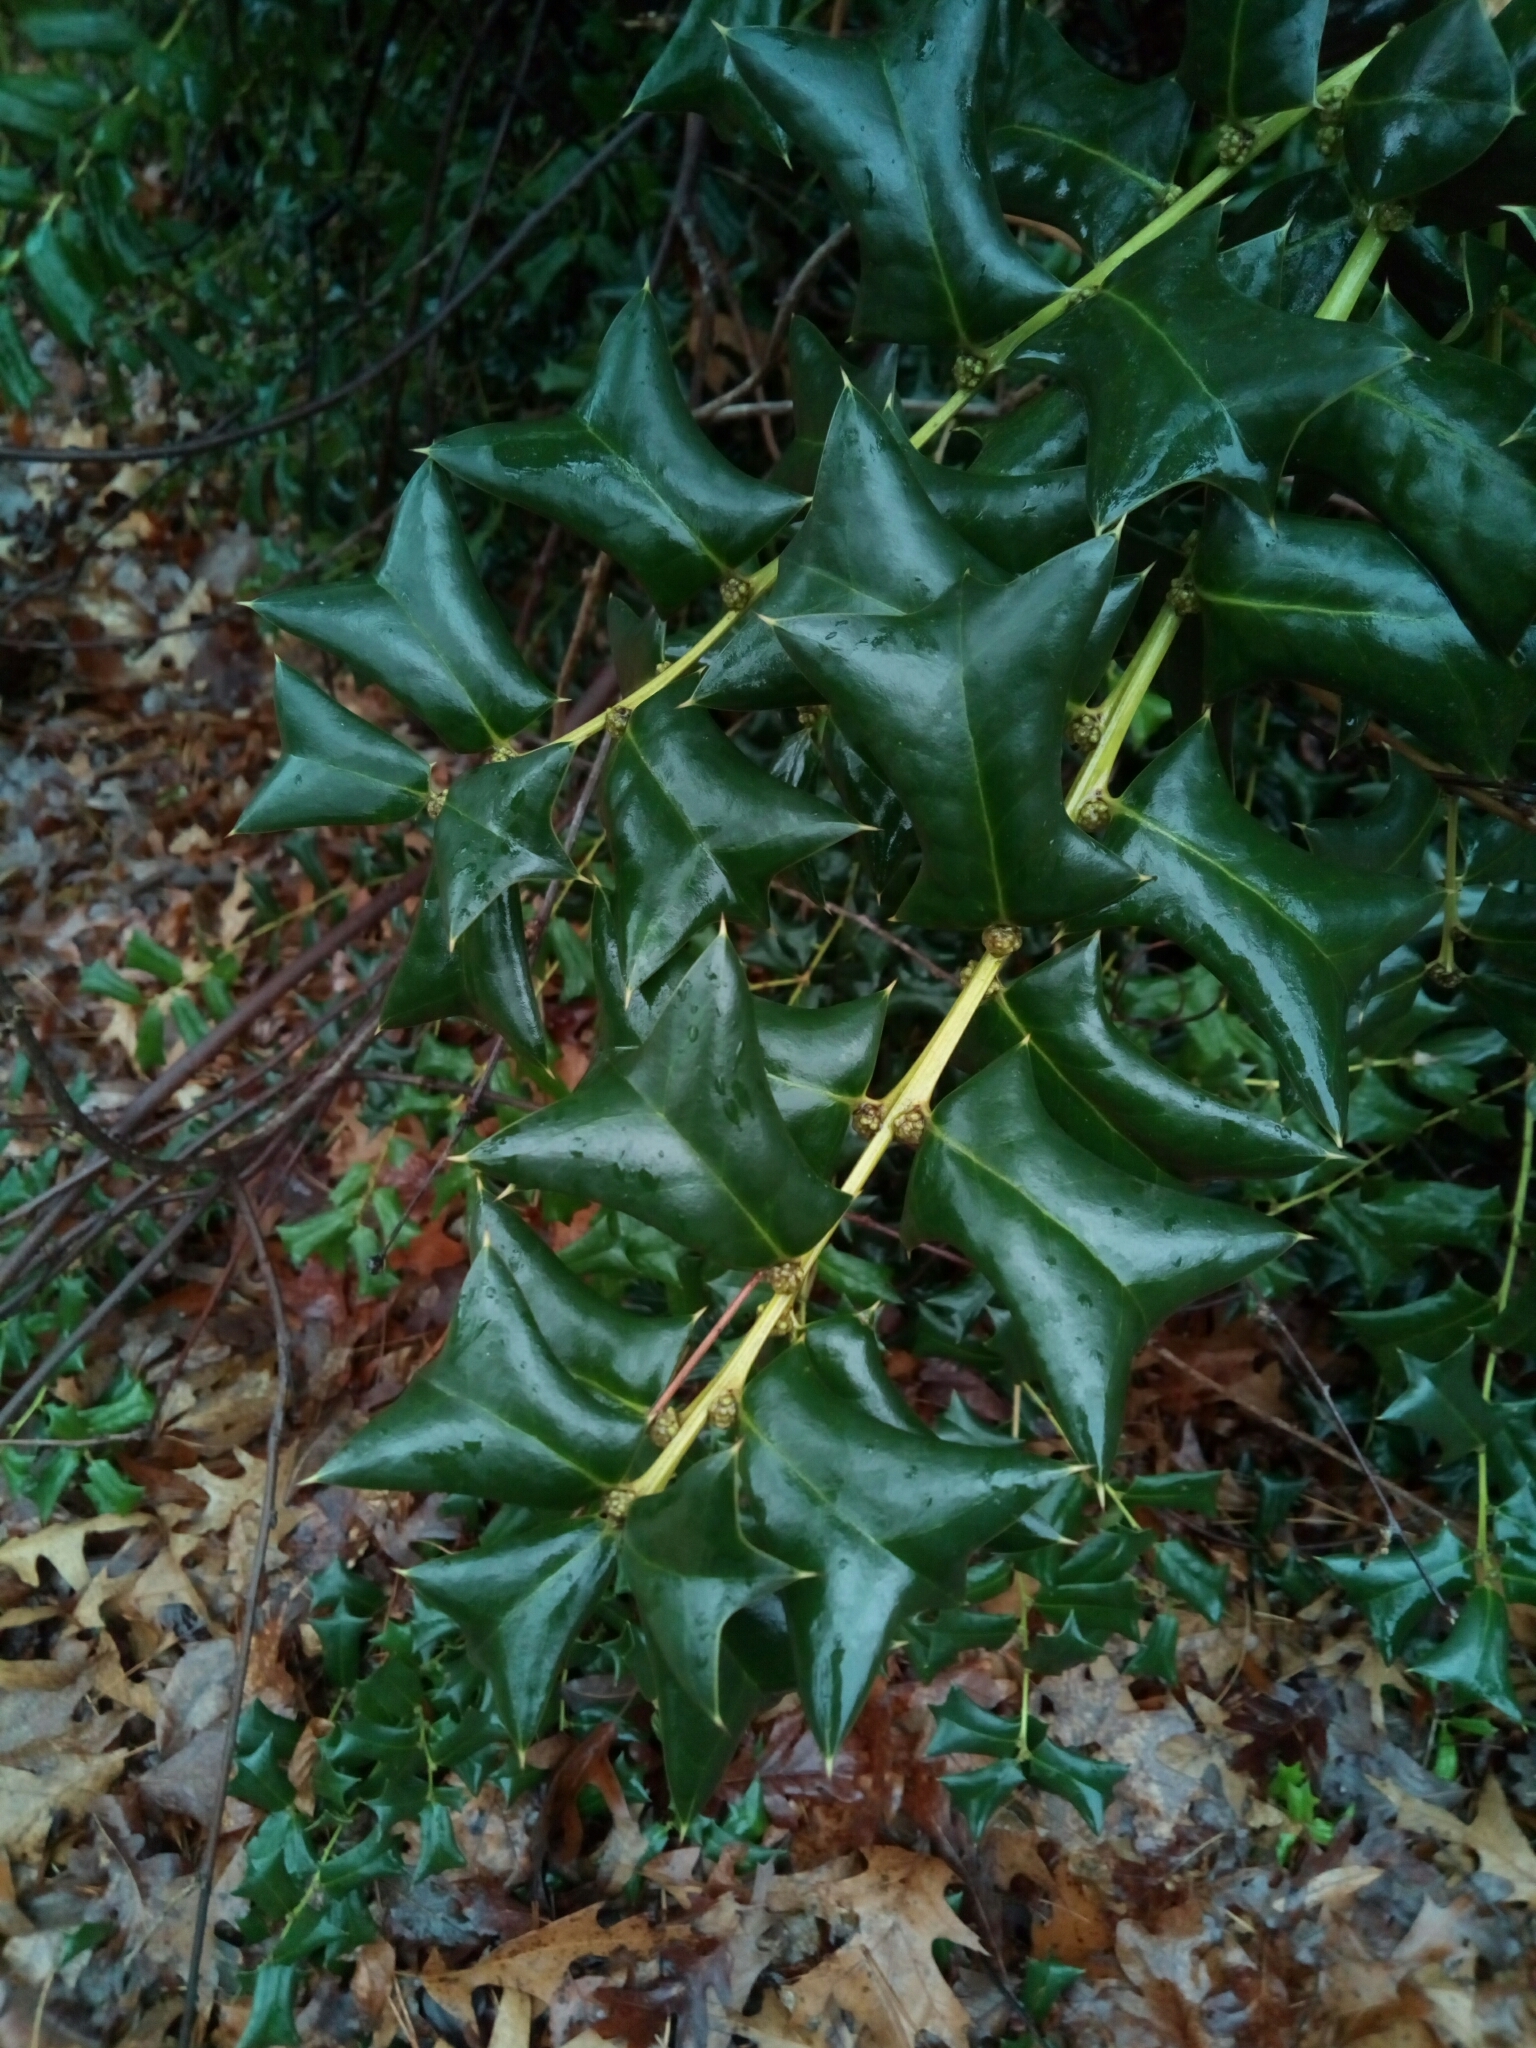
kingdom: Plantae
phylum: Tracheophyta
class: Magnoliopsida
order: Aquifoliales
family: Aquifoliaceae
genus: Ilex
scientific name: Ilex cornuta
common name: Chinese holly
